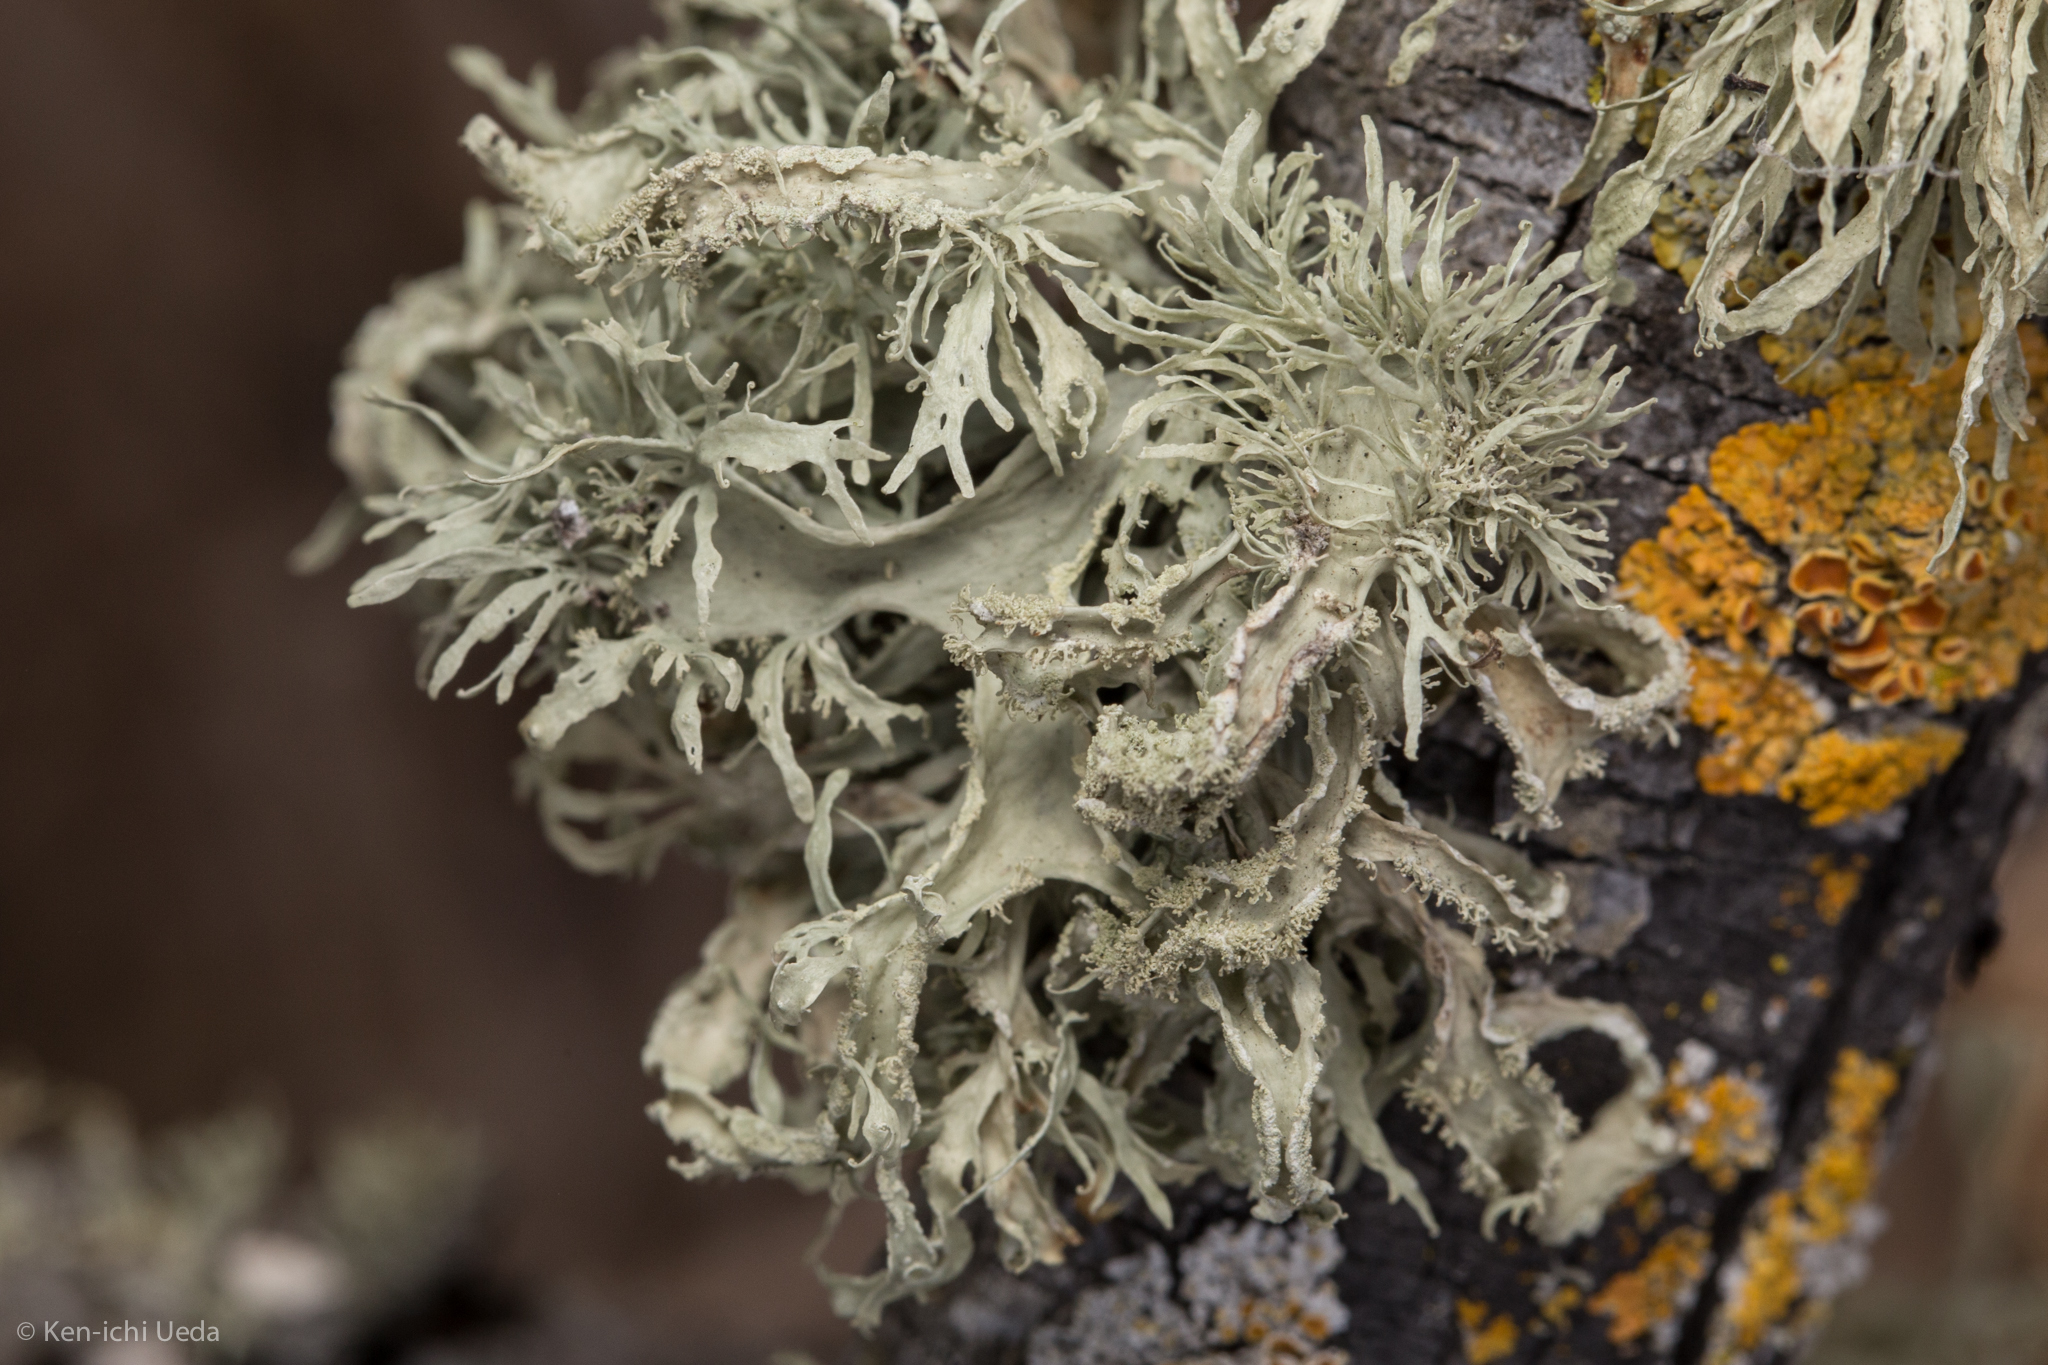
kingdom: Fungi
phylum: Ascomycota
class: Lecanoromycetes
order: Lecanorales
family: Parmeliaceae
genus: Evernia
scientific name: Evernia prunastri
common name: Oak moss
